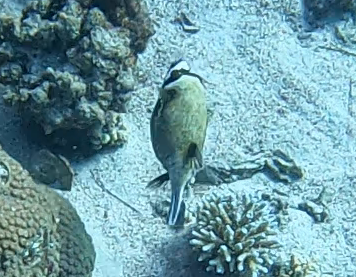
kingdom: Animalia
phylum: Chordata
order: Tetraodontiformes
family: Tetraodontidae
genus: Arothron
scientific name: Arothron diadematus
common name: Masked puffer
